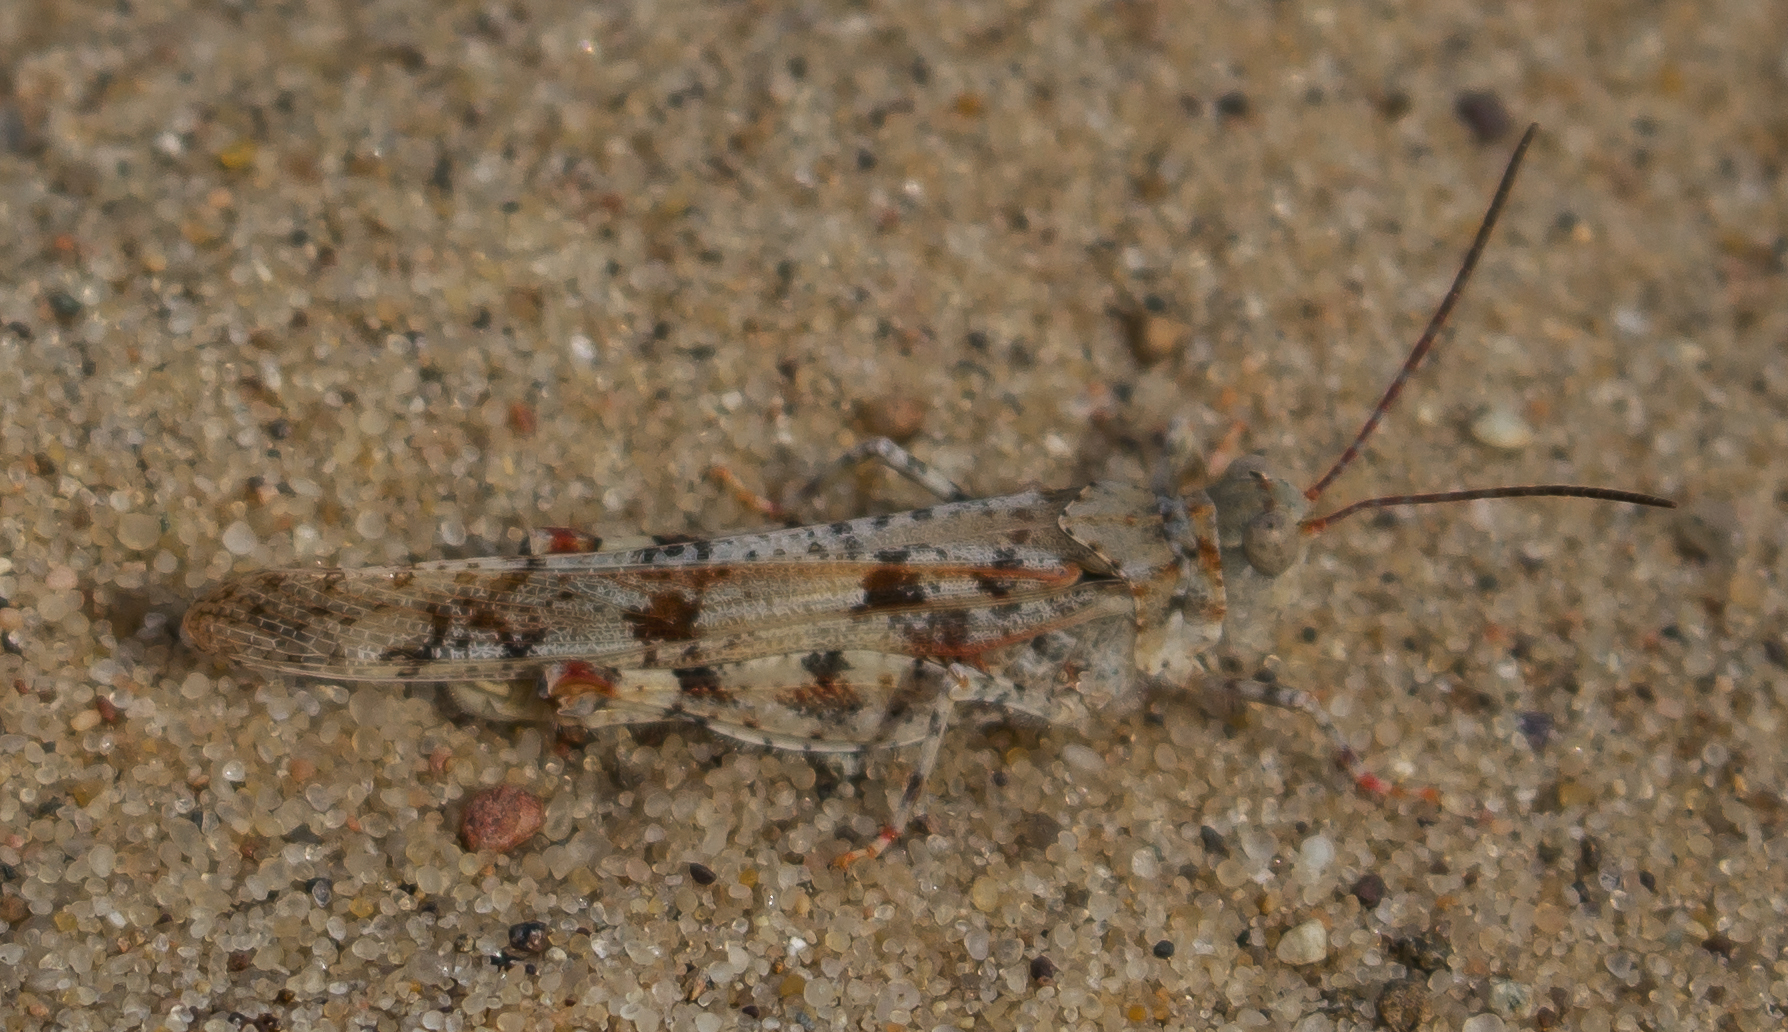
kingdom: Animalia
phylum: Arthropoda
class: Insecta
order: Orthoptera
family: Acrididae
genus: Trimerotropis
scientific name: Trimerotropis maritima
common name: Seaside locust
